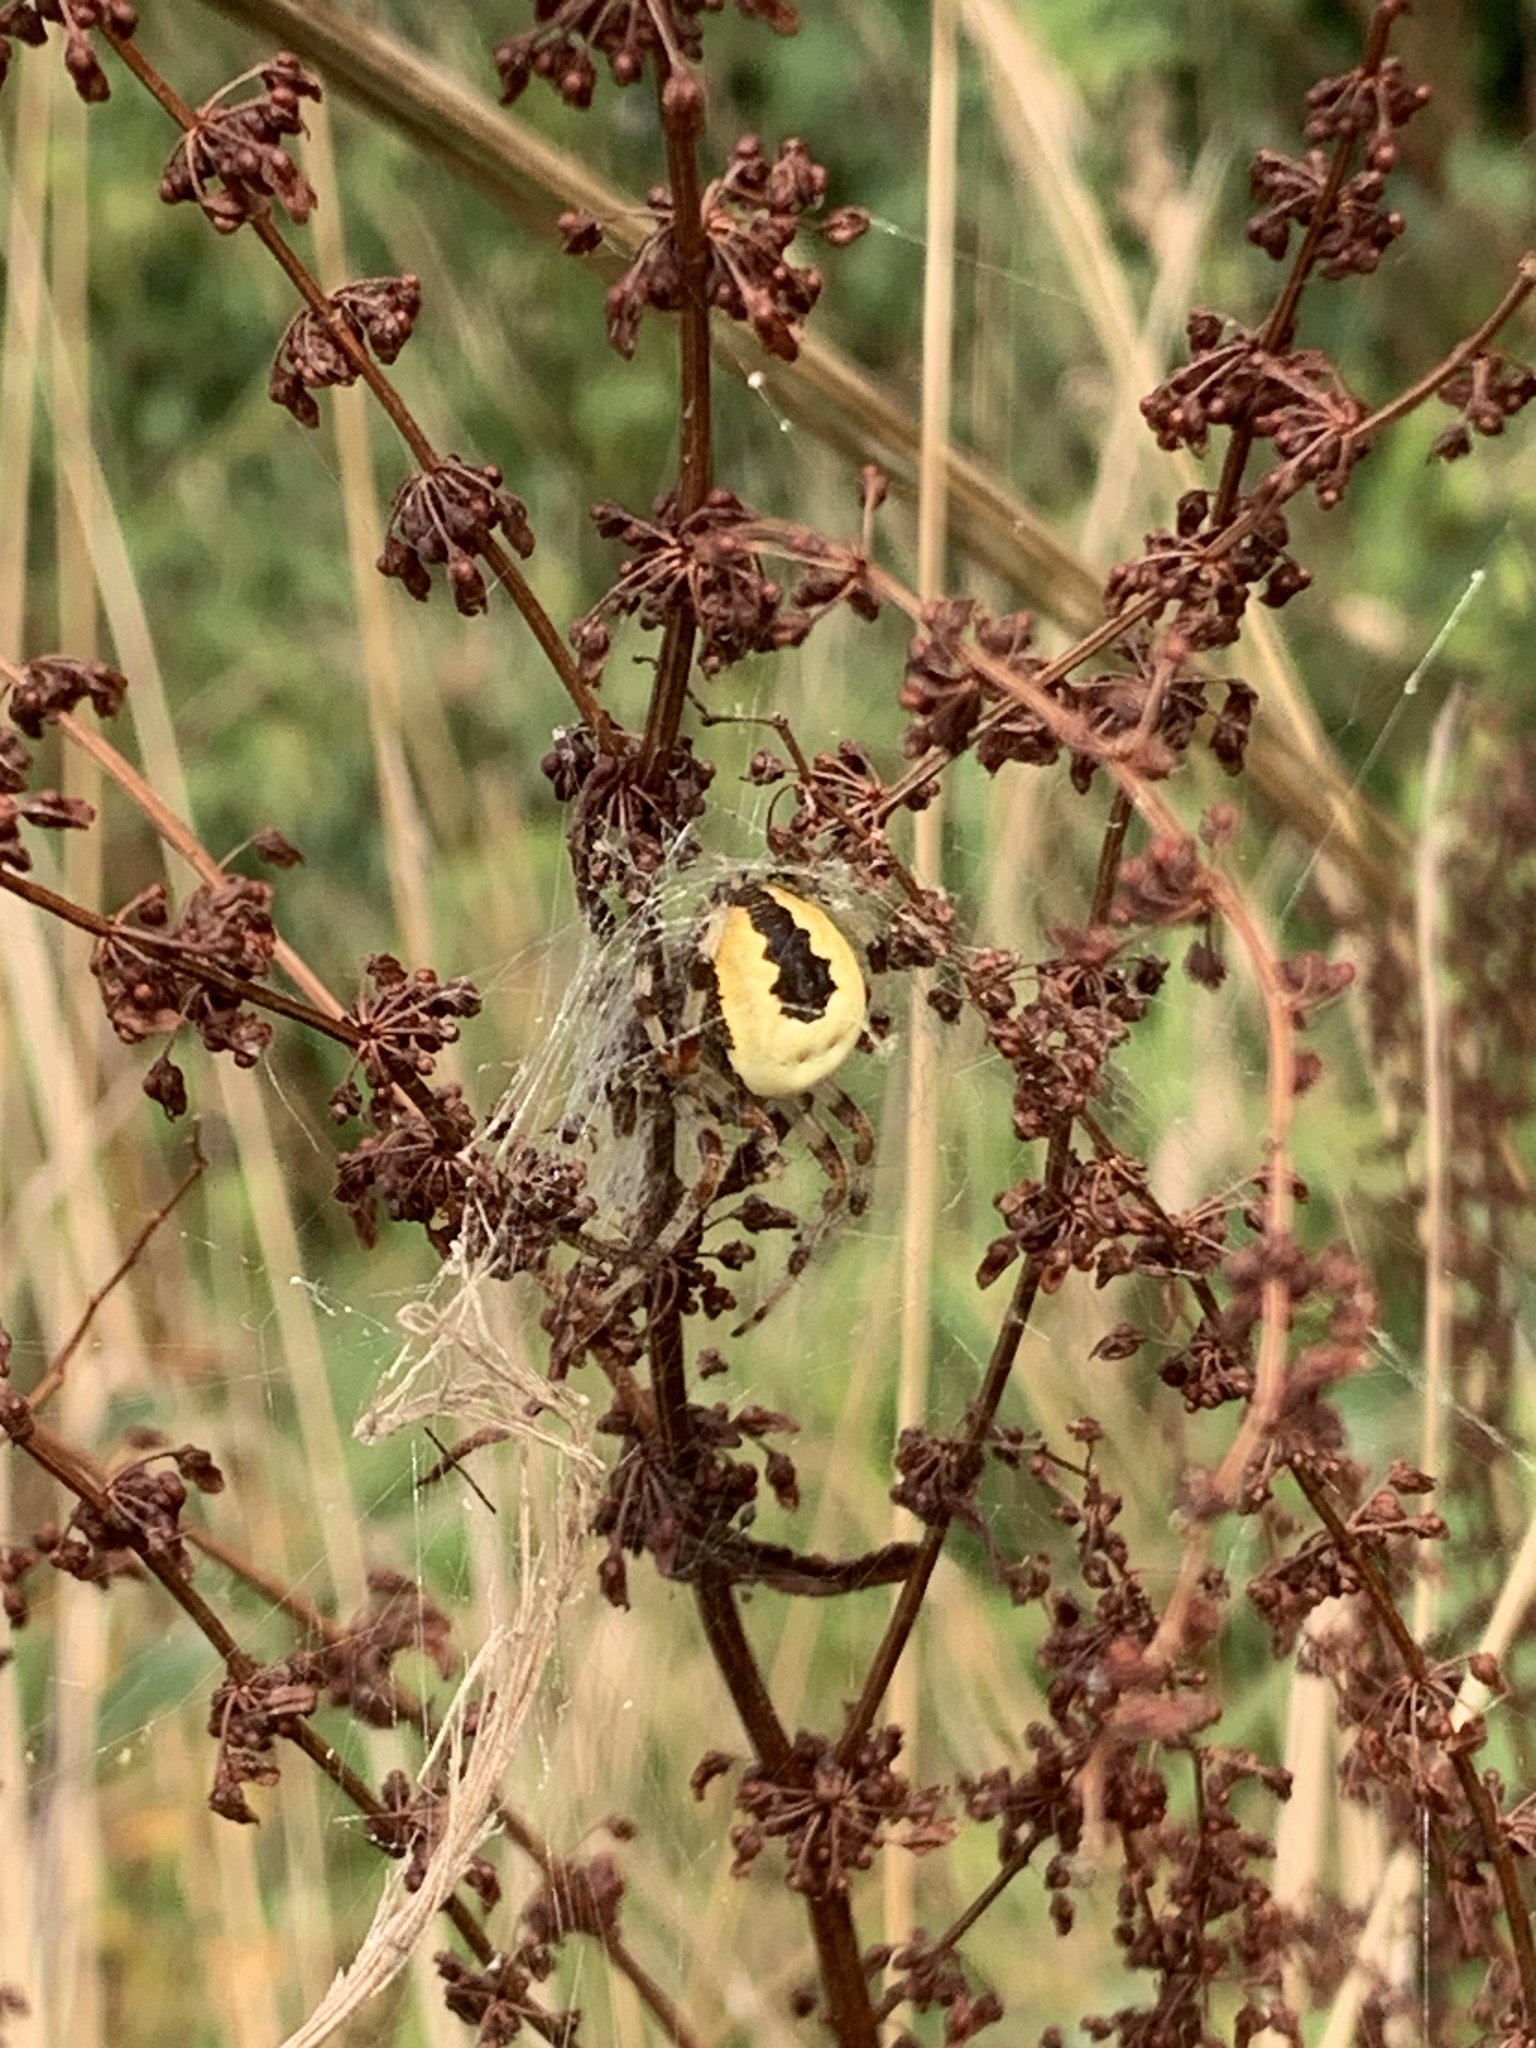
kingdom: Animalia
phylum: Arthropoda
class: Arachnida
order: Araneae
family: Araneidae
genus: Araneus
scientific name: Araneus marmoreus
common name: Marbled orbweaver
